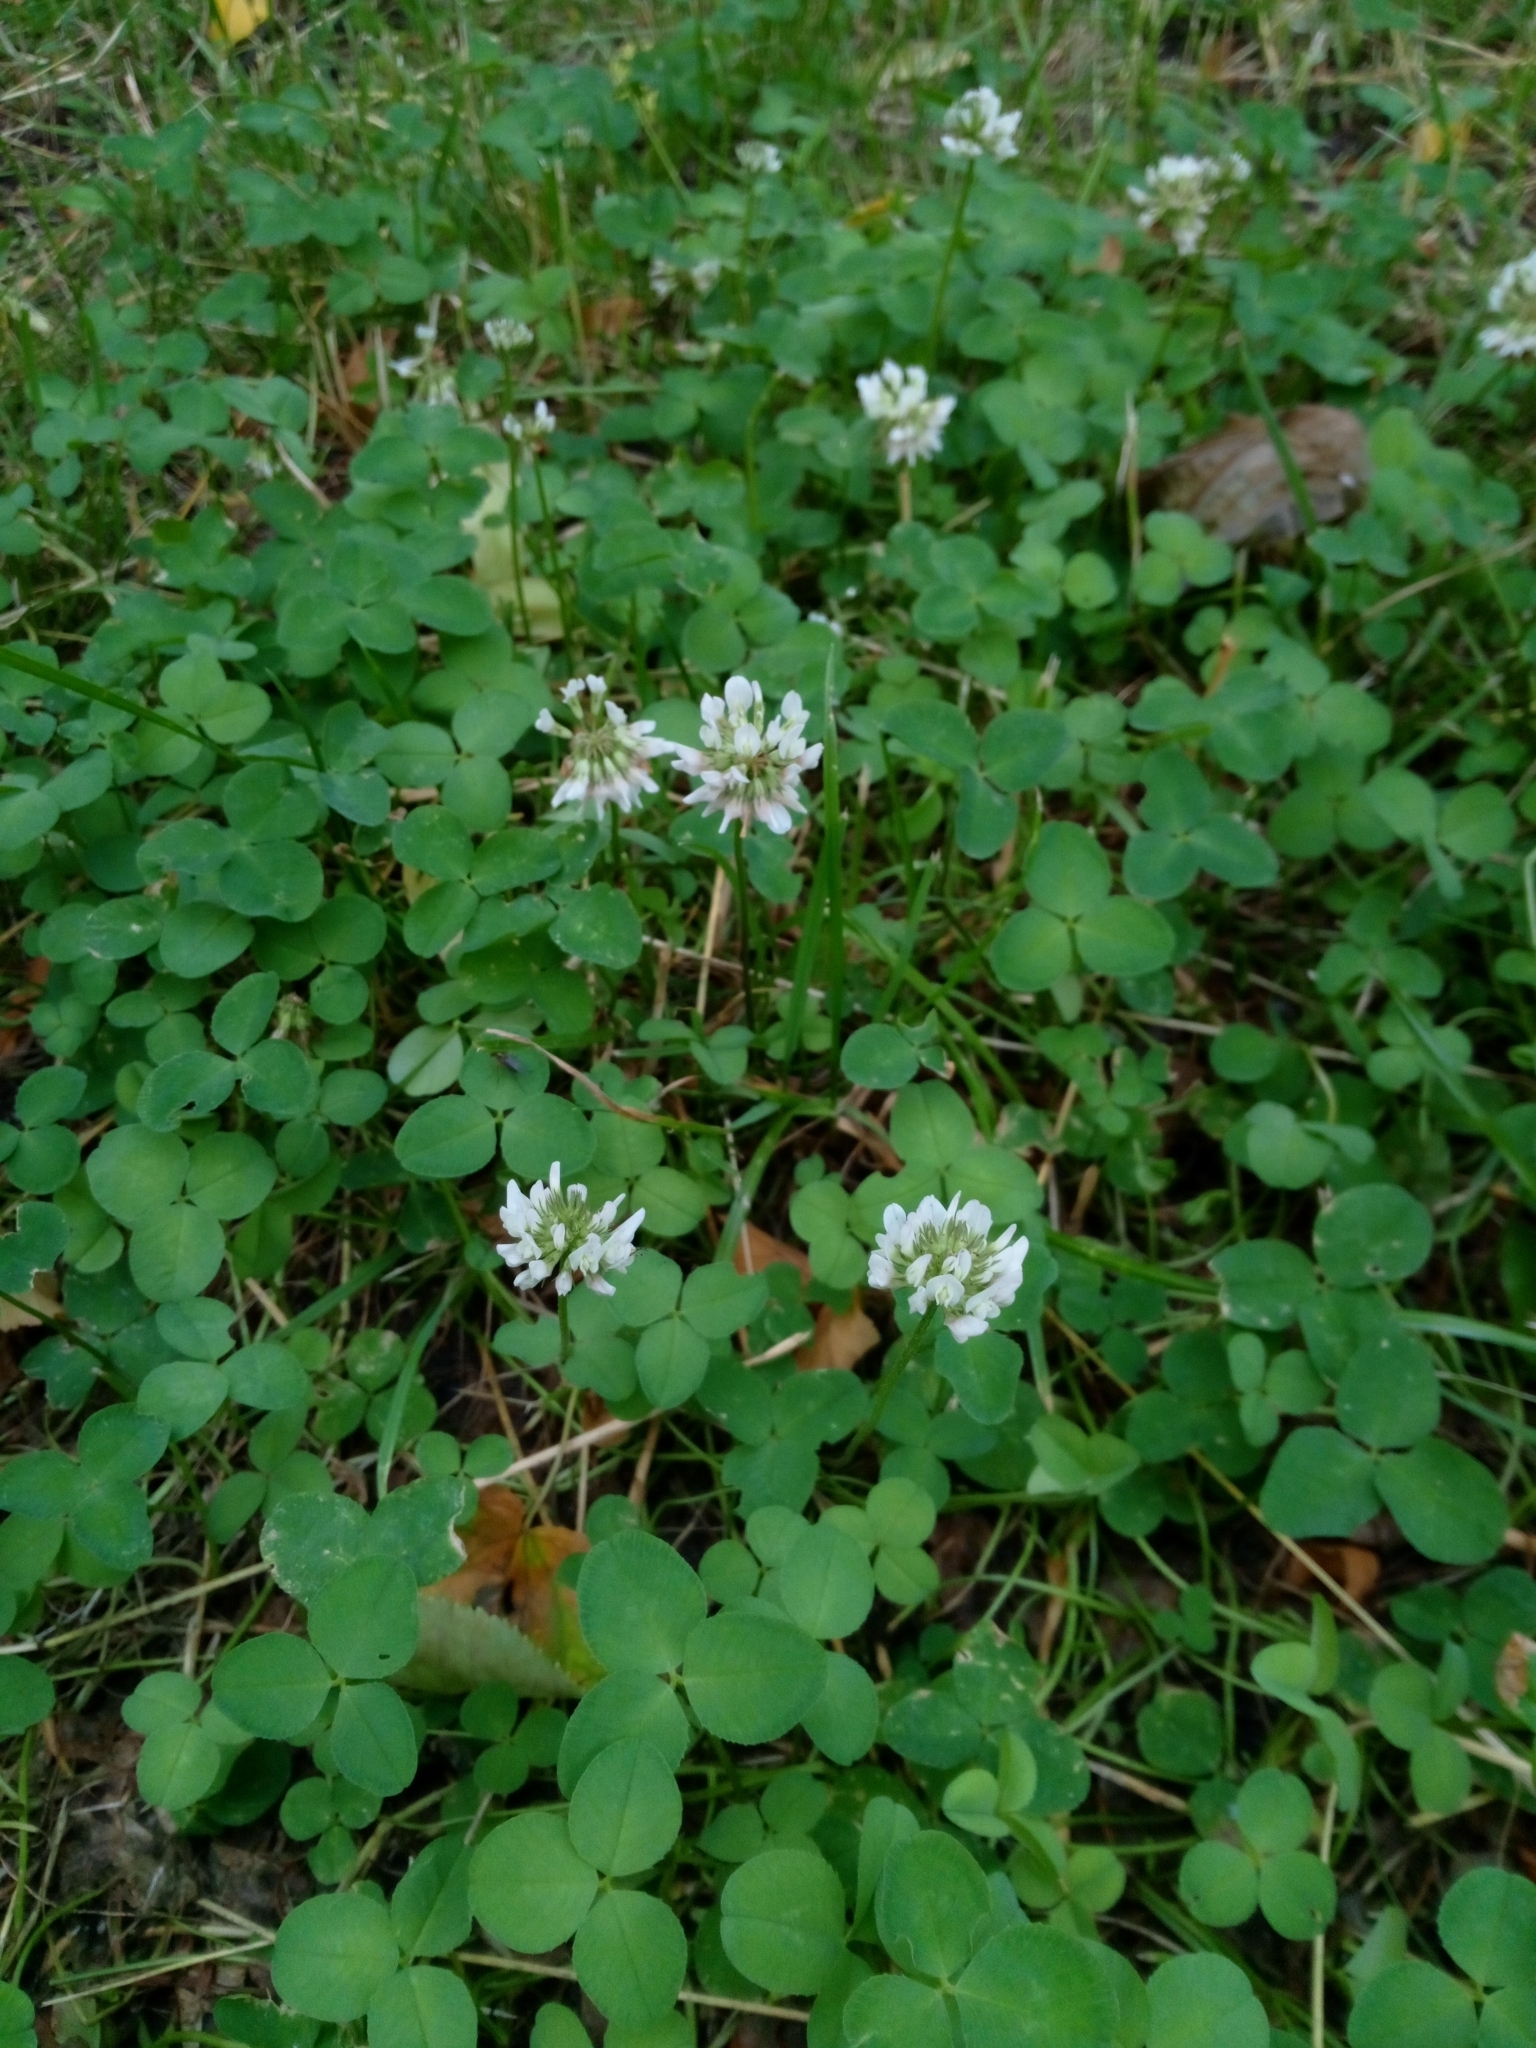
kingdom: Plantae
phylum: Tracheophyta
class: Magnoliopsida
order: Fabales
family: Fabaceae
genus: Trifolium
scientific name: Trifolium repens
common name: White clover
